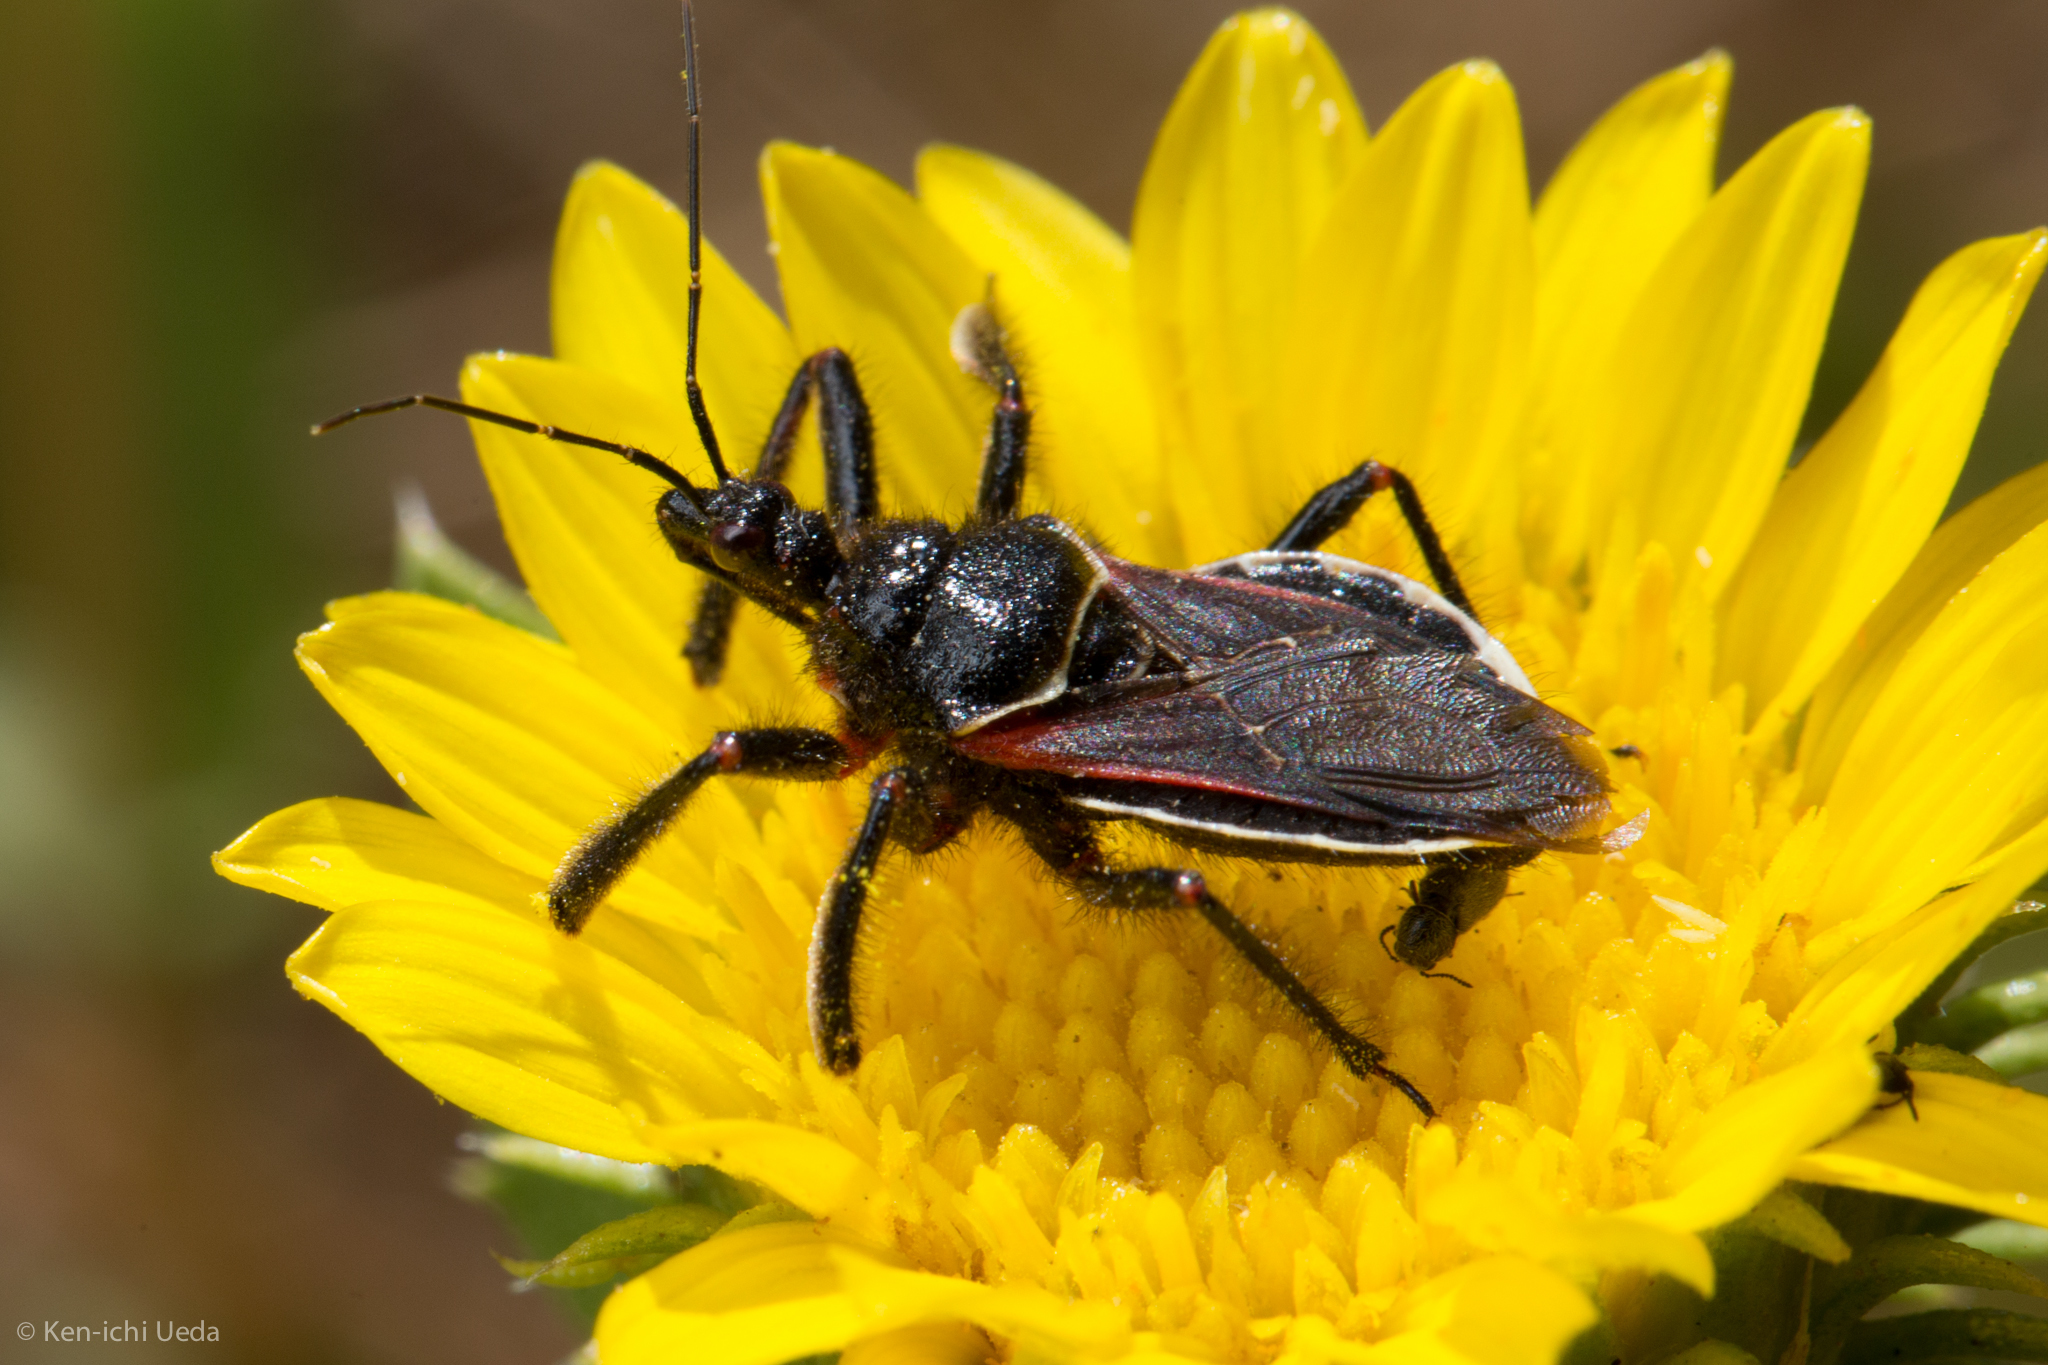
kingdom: Animalia
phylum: Arthropoda
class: Insecta
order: Hemiptera
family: Reduviidae
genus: Apiomerus
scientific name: Apiomerus californicus
